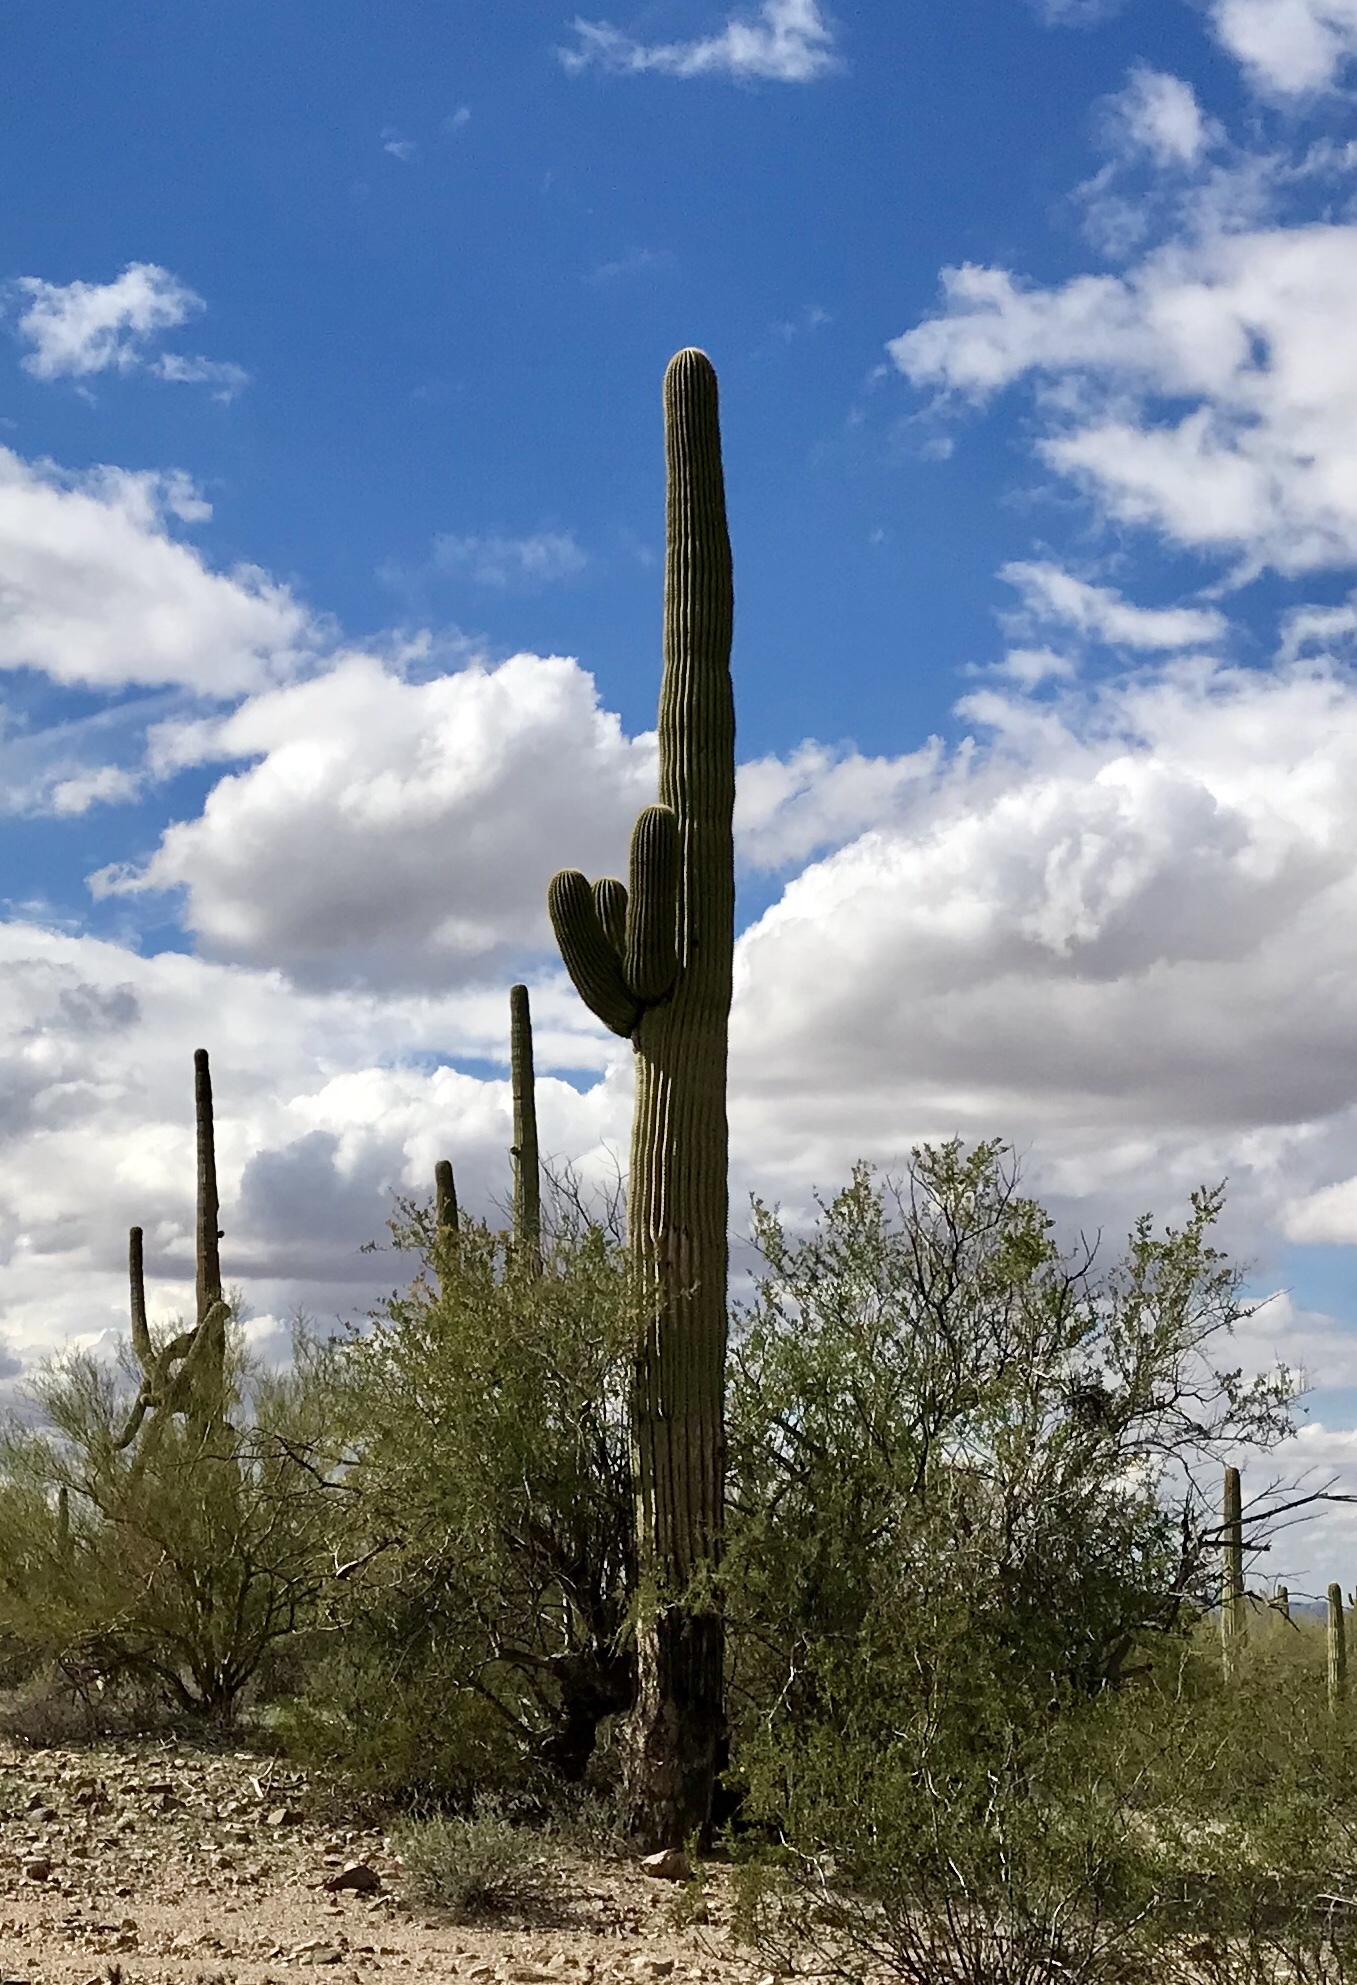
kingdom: Plantae
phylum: Tracheophyta
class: Magnoliopsida
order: Caryophyllales
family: Cactaceae
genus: Carnegiea
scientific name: Carnegiea gigantea
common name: Saguaro
